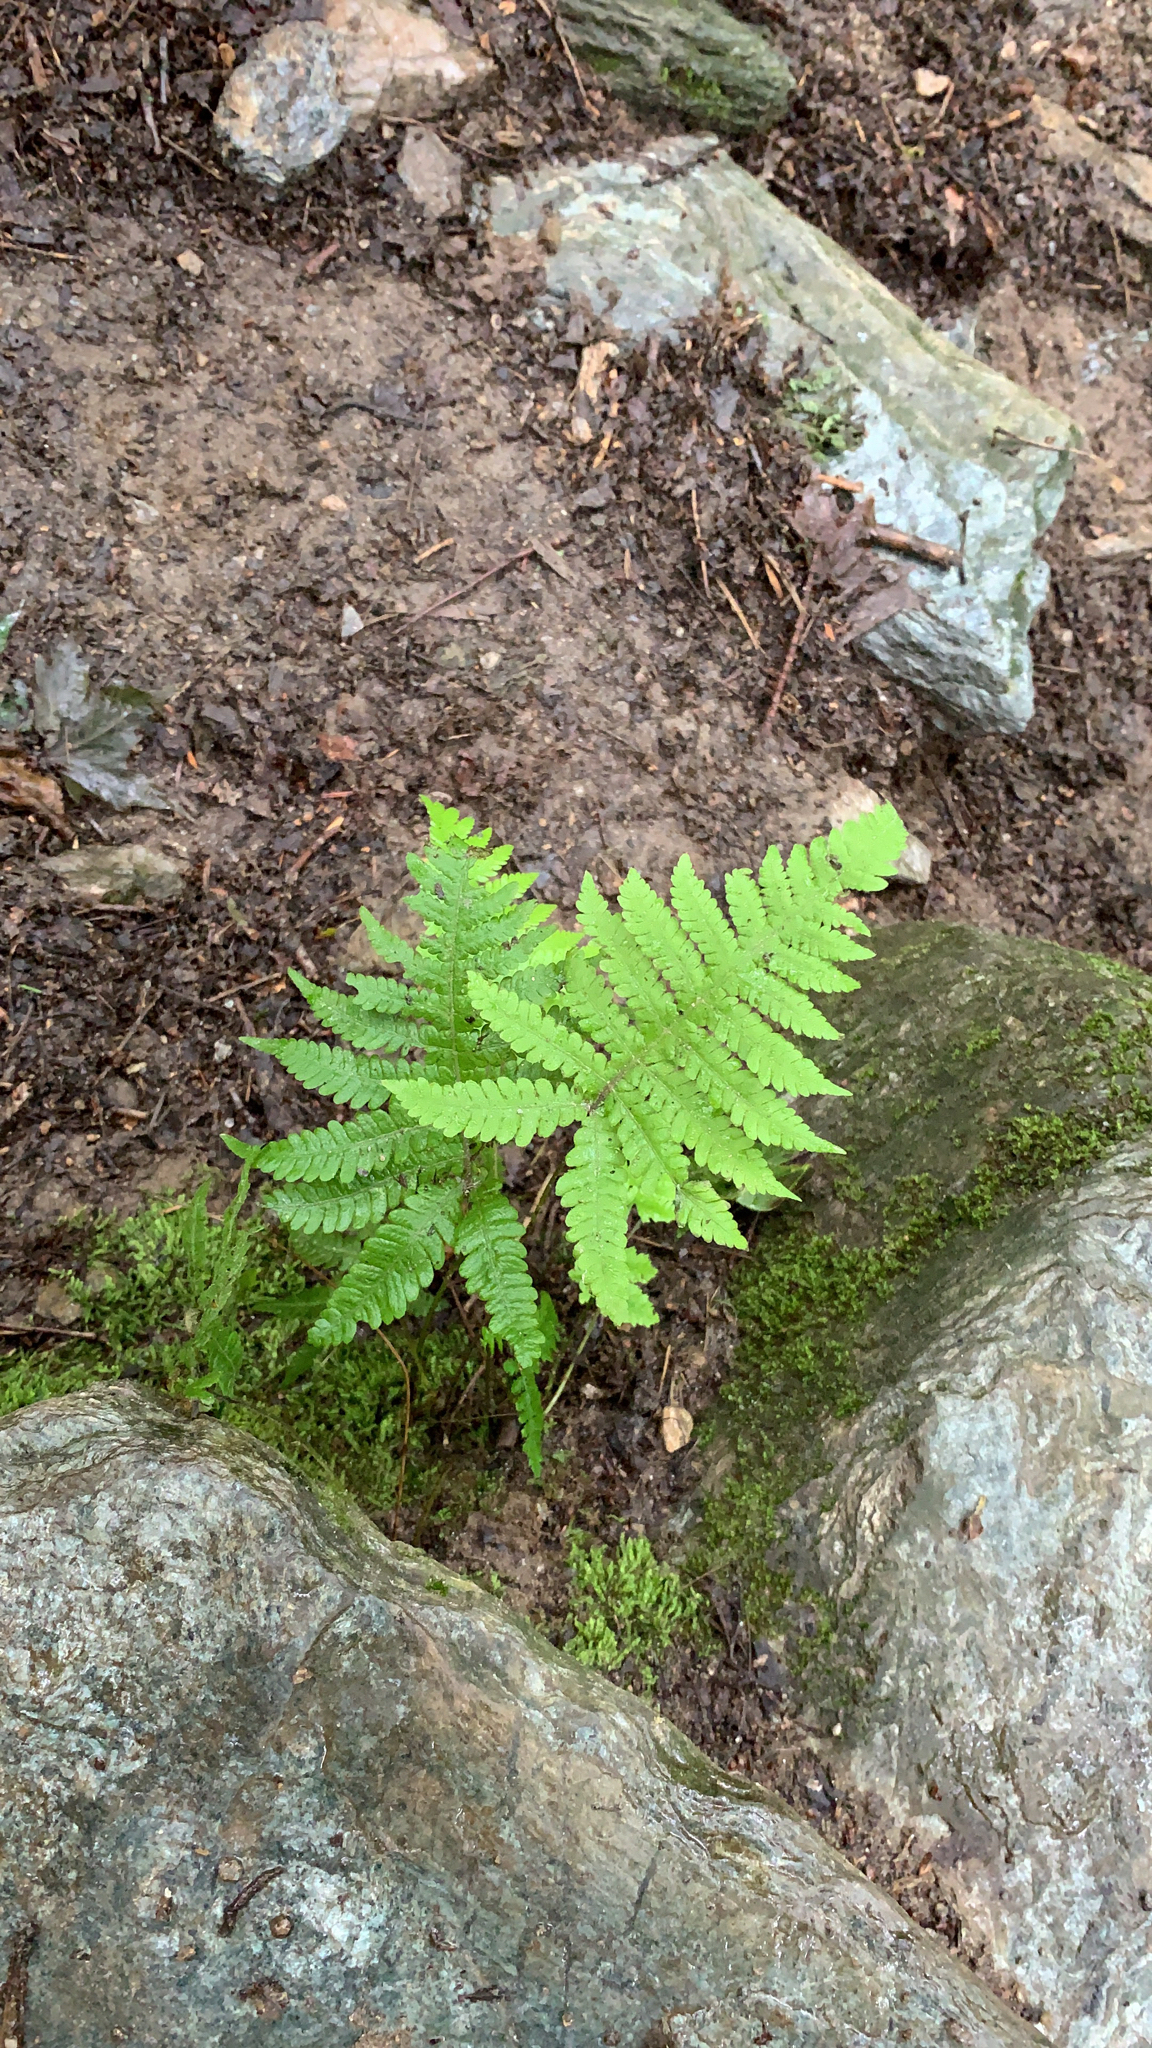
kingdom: Plantae
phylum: Tracheophyta
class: Polypodiopsida
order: Polypodiales
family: Thelypteridaceae
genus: Phegopteris
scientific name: Phegopteris connectilis
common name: Beech fern
